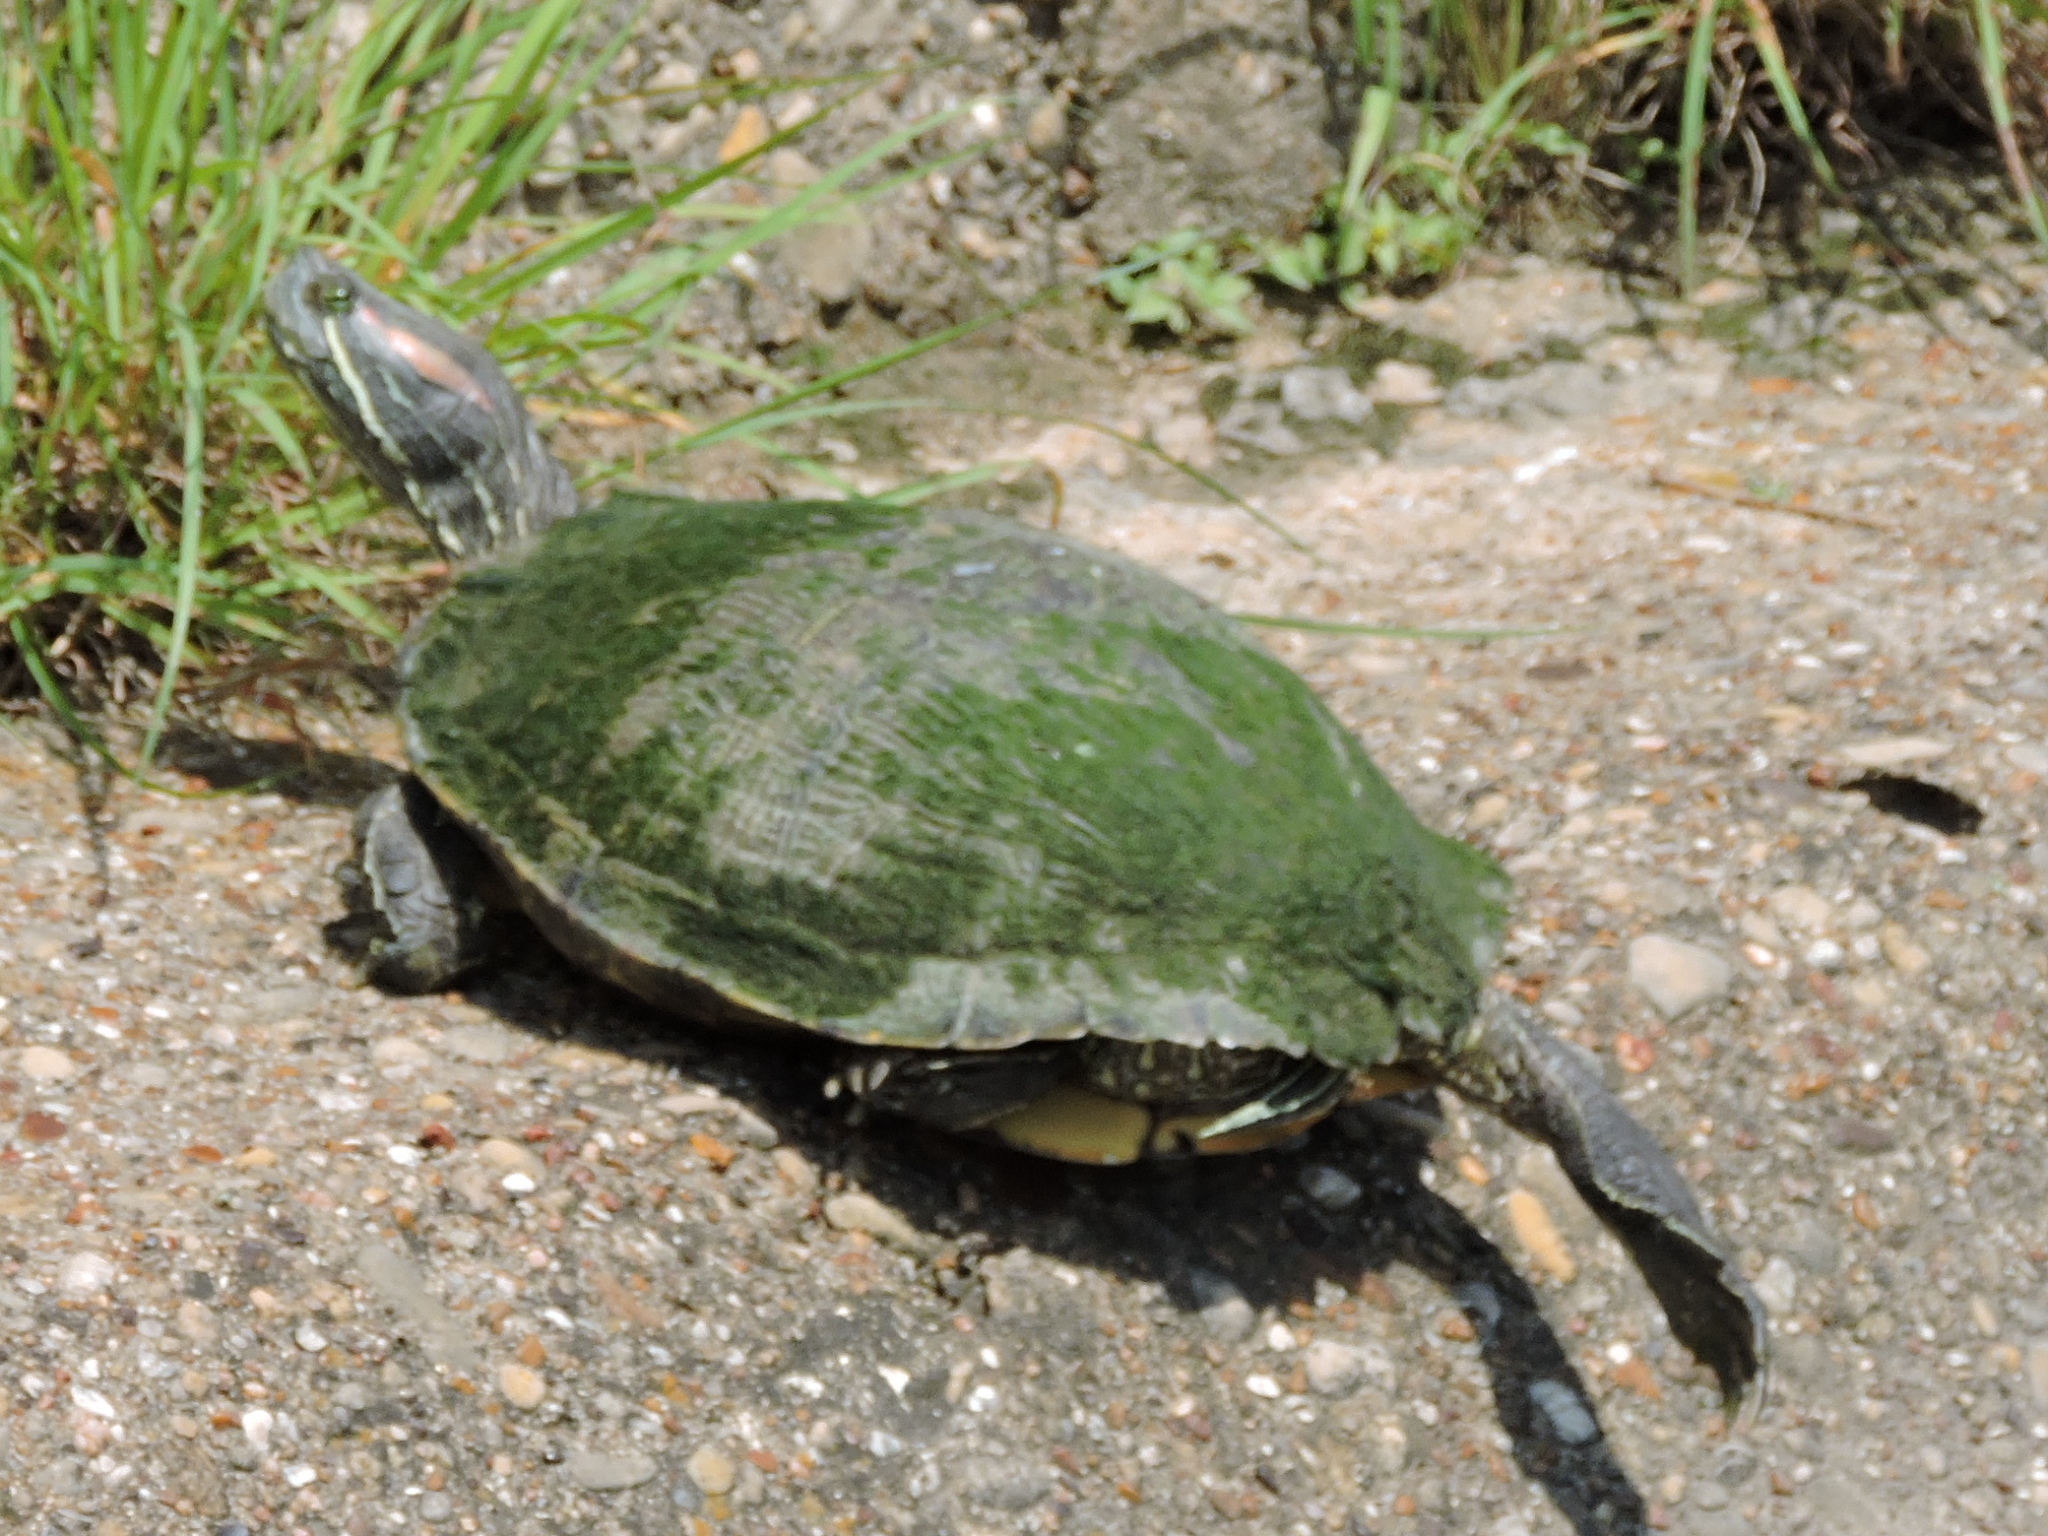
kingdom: Animalia
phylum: Chordata
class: Testudines
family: Emydidae
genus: Trachemys
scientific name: Trachemys scripta
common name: Slider
